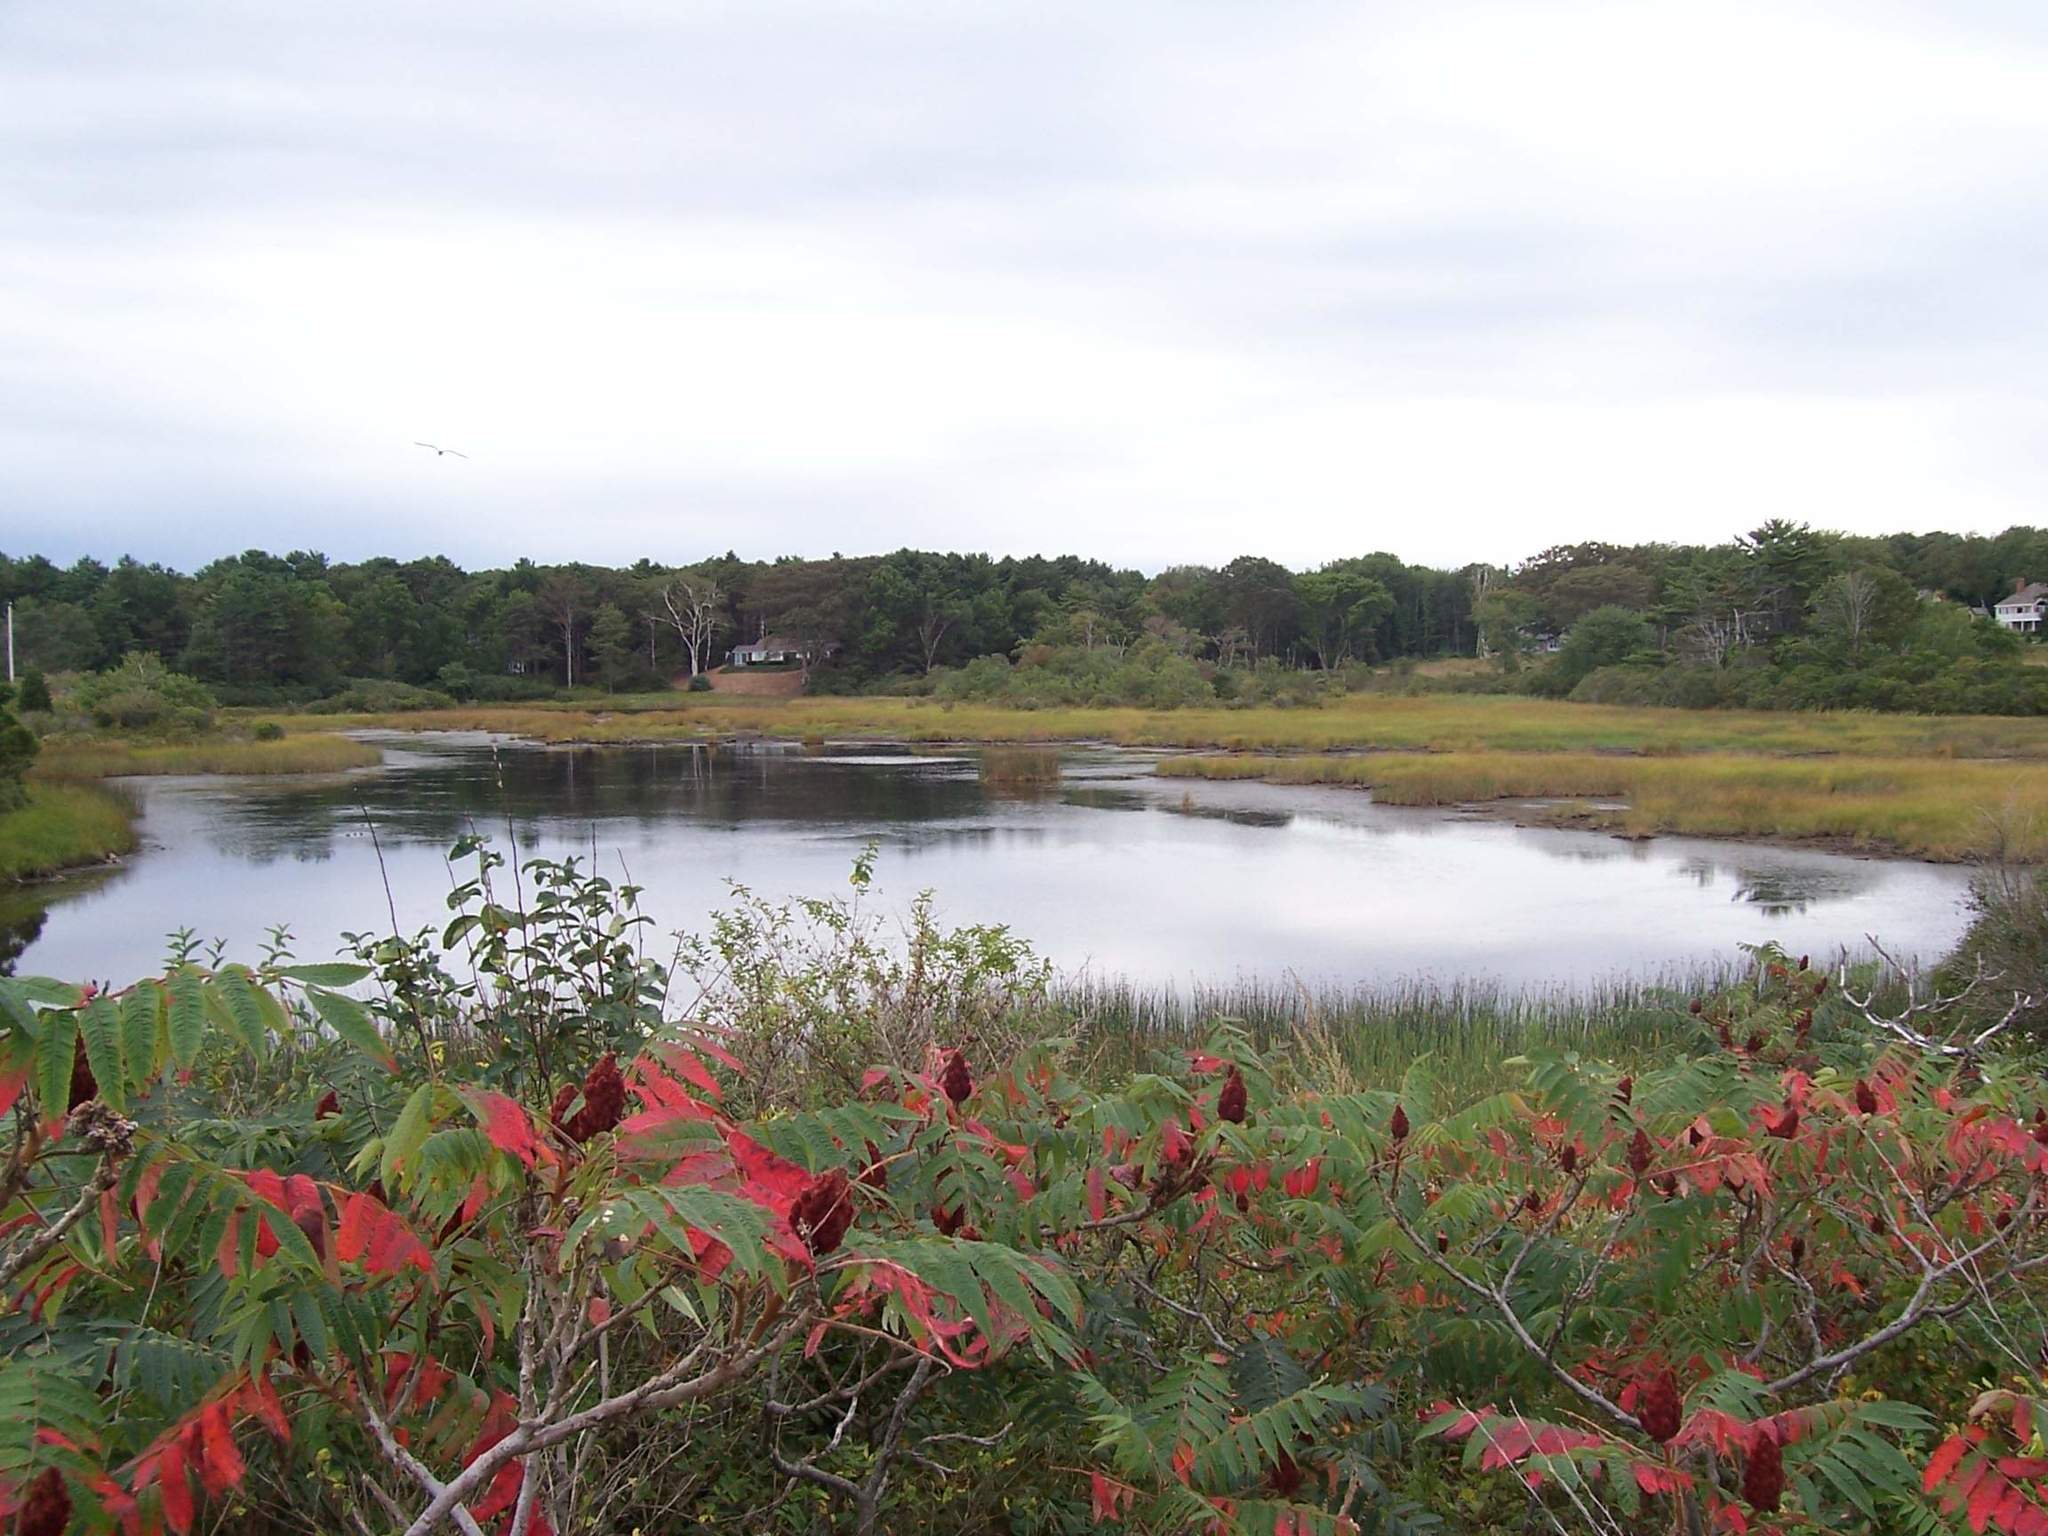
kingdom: Plantae
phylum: Tracheophyta
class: Magnoliopsida
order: Sapindales
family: Anacardiaceae
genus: Rhus
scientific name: Rhus typhina
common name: Staghorn sumac
